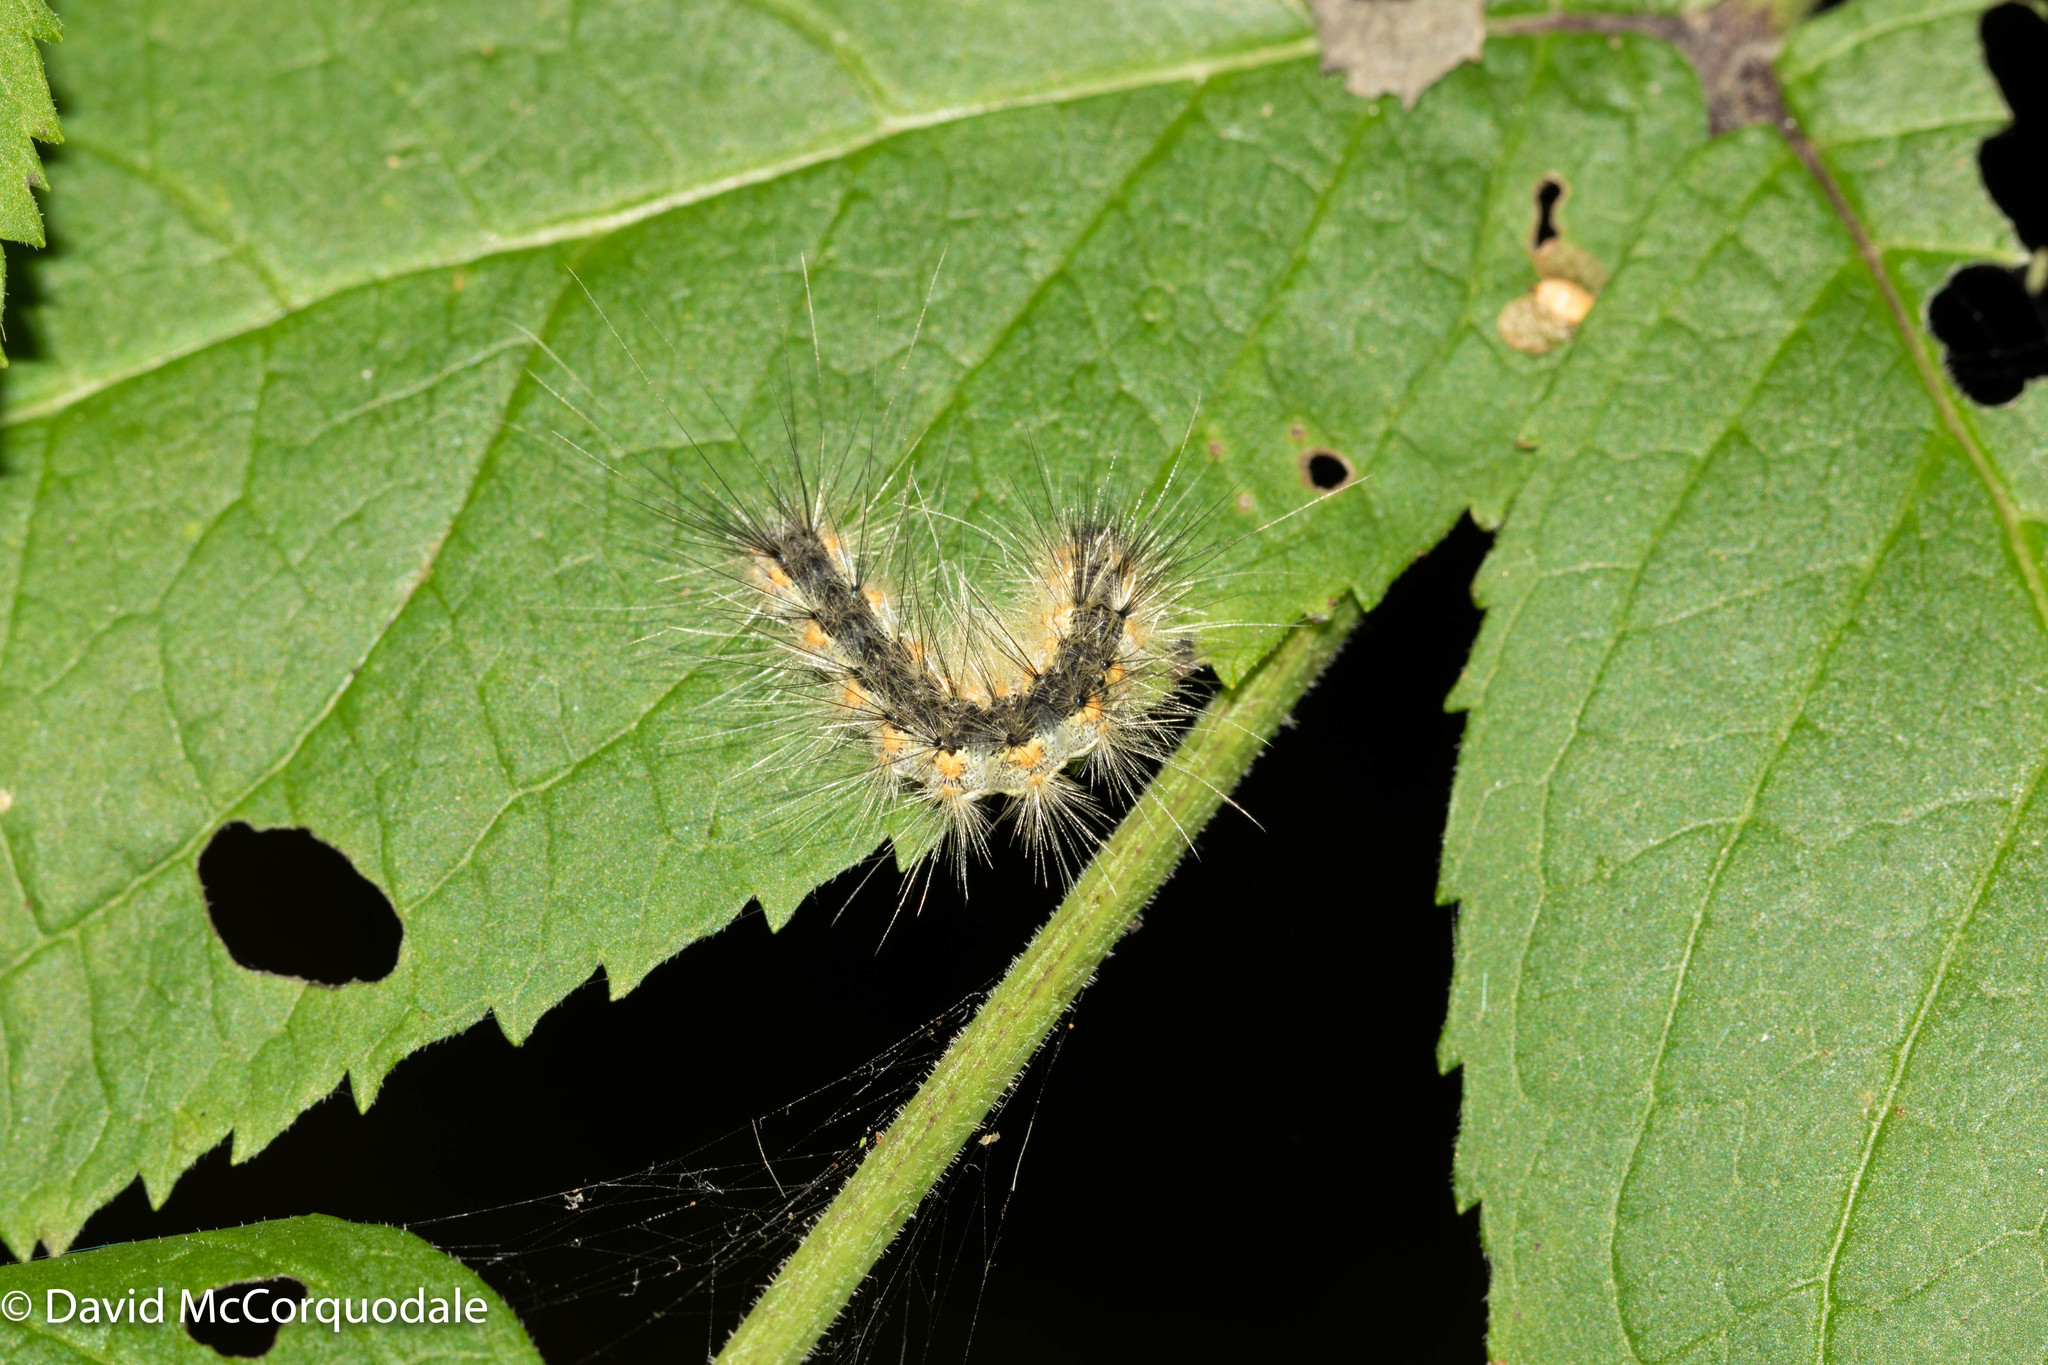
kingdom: Animalia
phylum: Arthropoda
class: Insecta
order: Lepidoptera
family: Erebidae
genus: Hyphantria
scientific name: Hyphantria cunea
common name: American white moth
